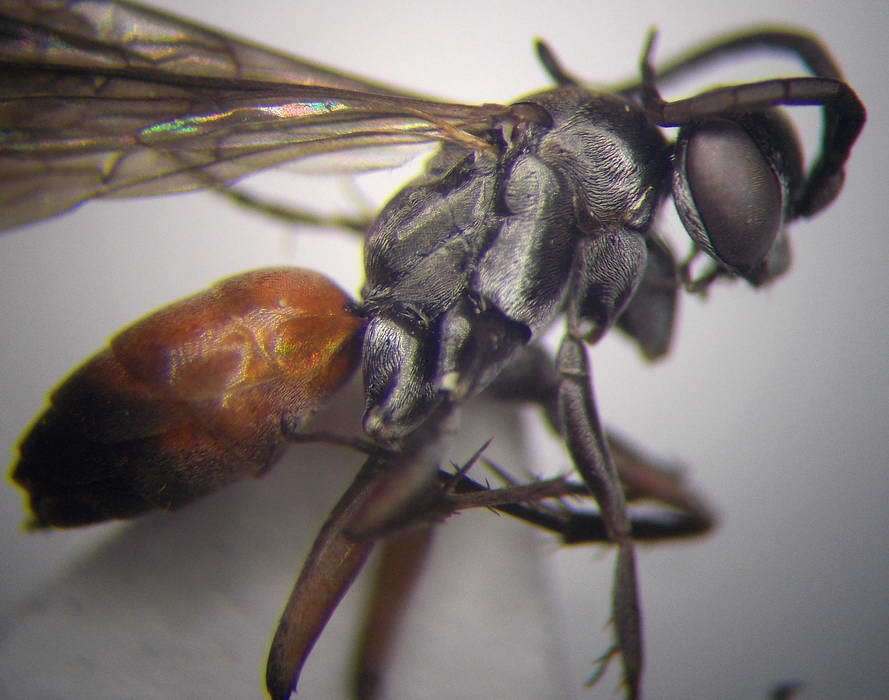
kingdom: Animalia
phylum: Arthropoda
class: Insecta
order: Hymenoptera
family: Pompilidae
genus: Evagetes
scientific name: Evagetes dubius
